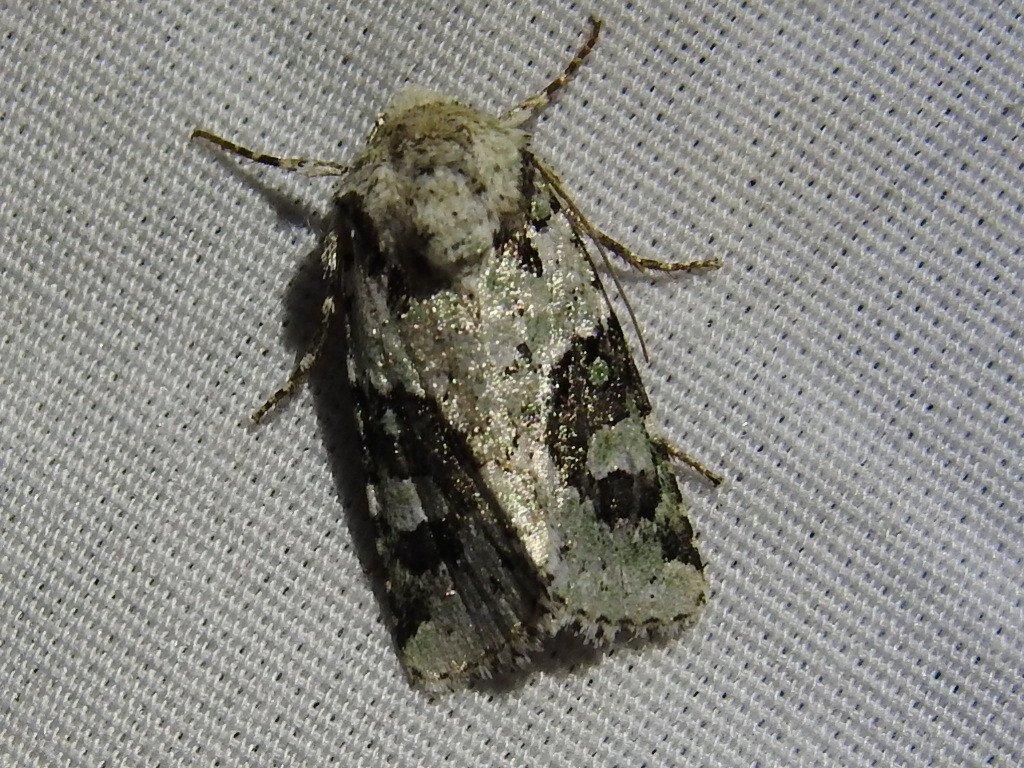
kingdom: Animalia
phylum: Arthropoda
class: Insecta
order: Lepidoptera
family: Noctuidae
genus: Lacinipolia
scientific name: Lacinipolia laudabilis
